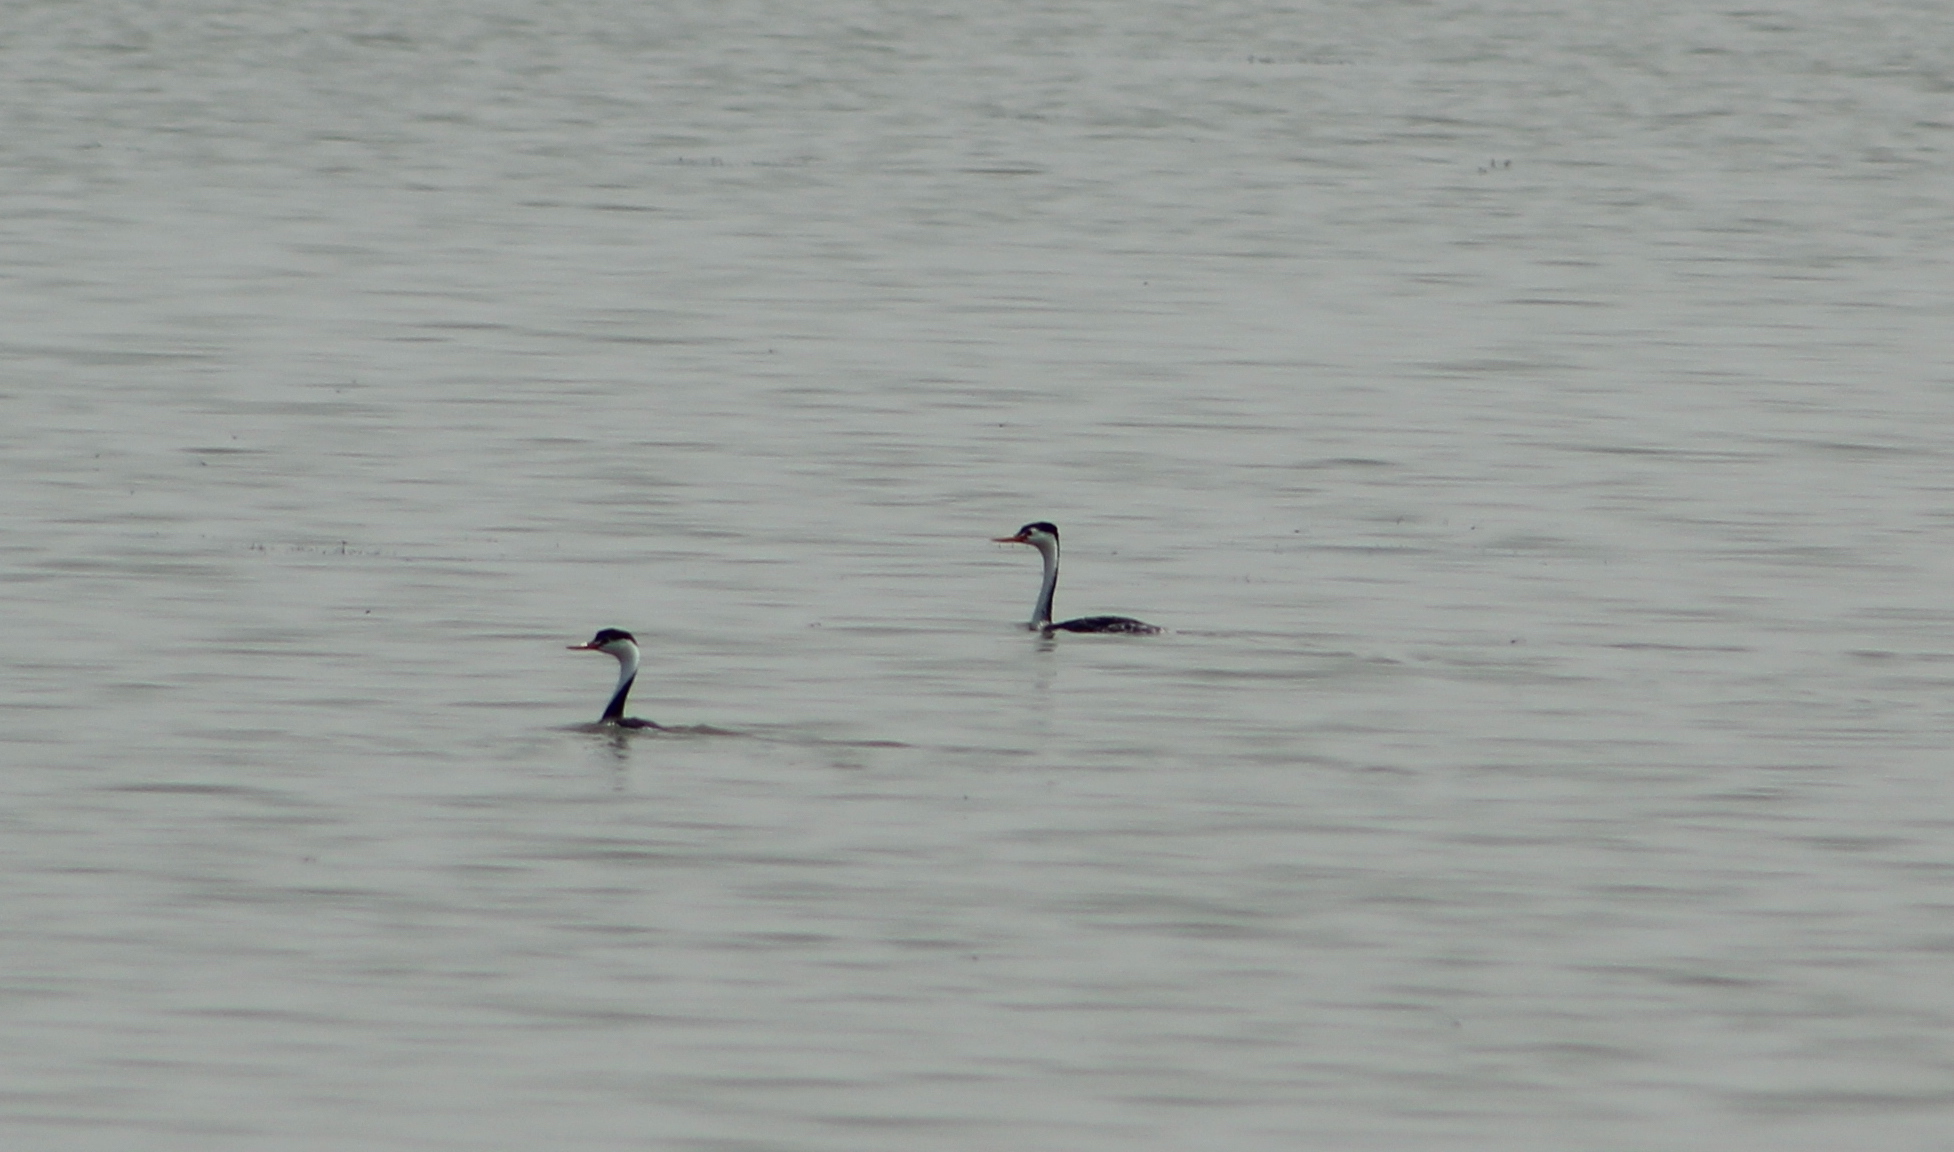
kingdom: Animalia
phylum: Chordata
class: Aves
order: Podicipediformes
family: Podicipedidae
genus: Aechmophorus
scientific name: Aechmophorus clarkii
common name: Clark's grebe
